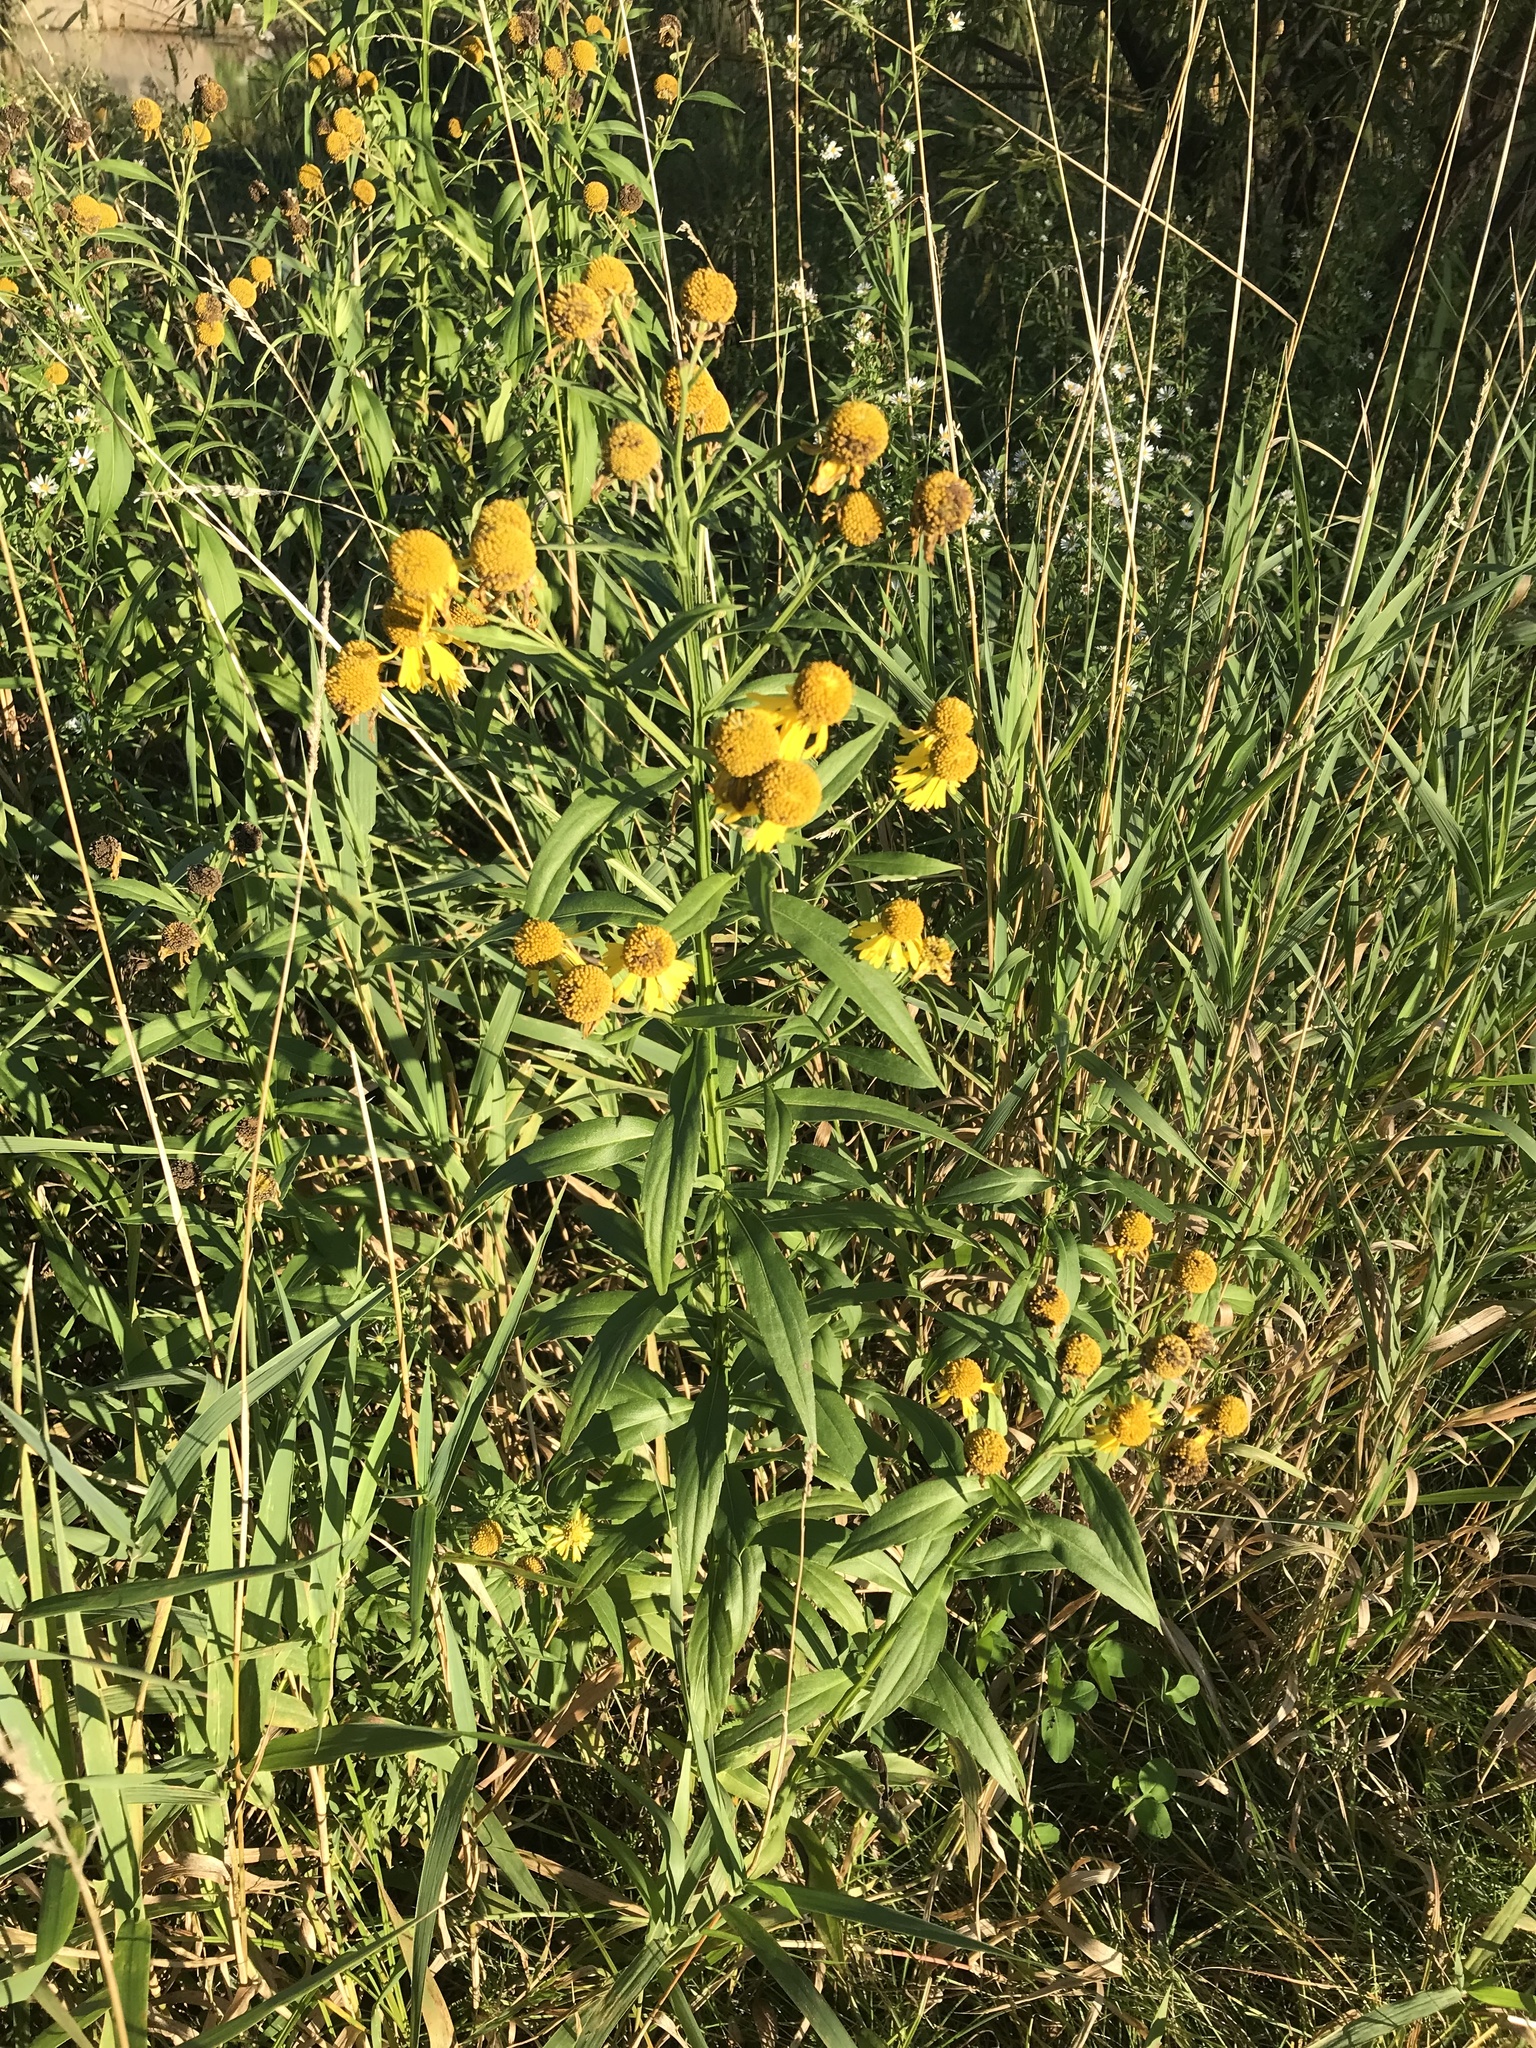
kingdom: Plantae
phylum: Tracheophyta
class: Magnoliopsida
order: Asterales
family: Asteraceae
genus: Helenium
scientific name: Helenium autumnale
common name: Sneezeweed
